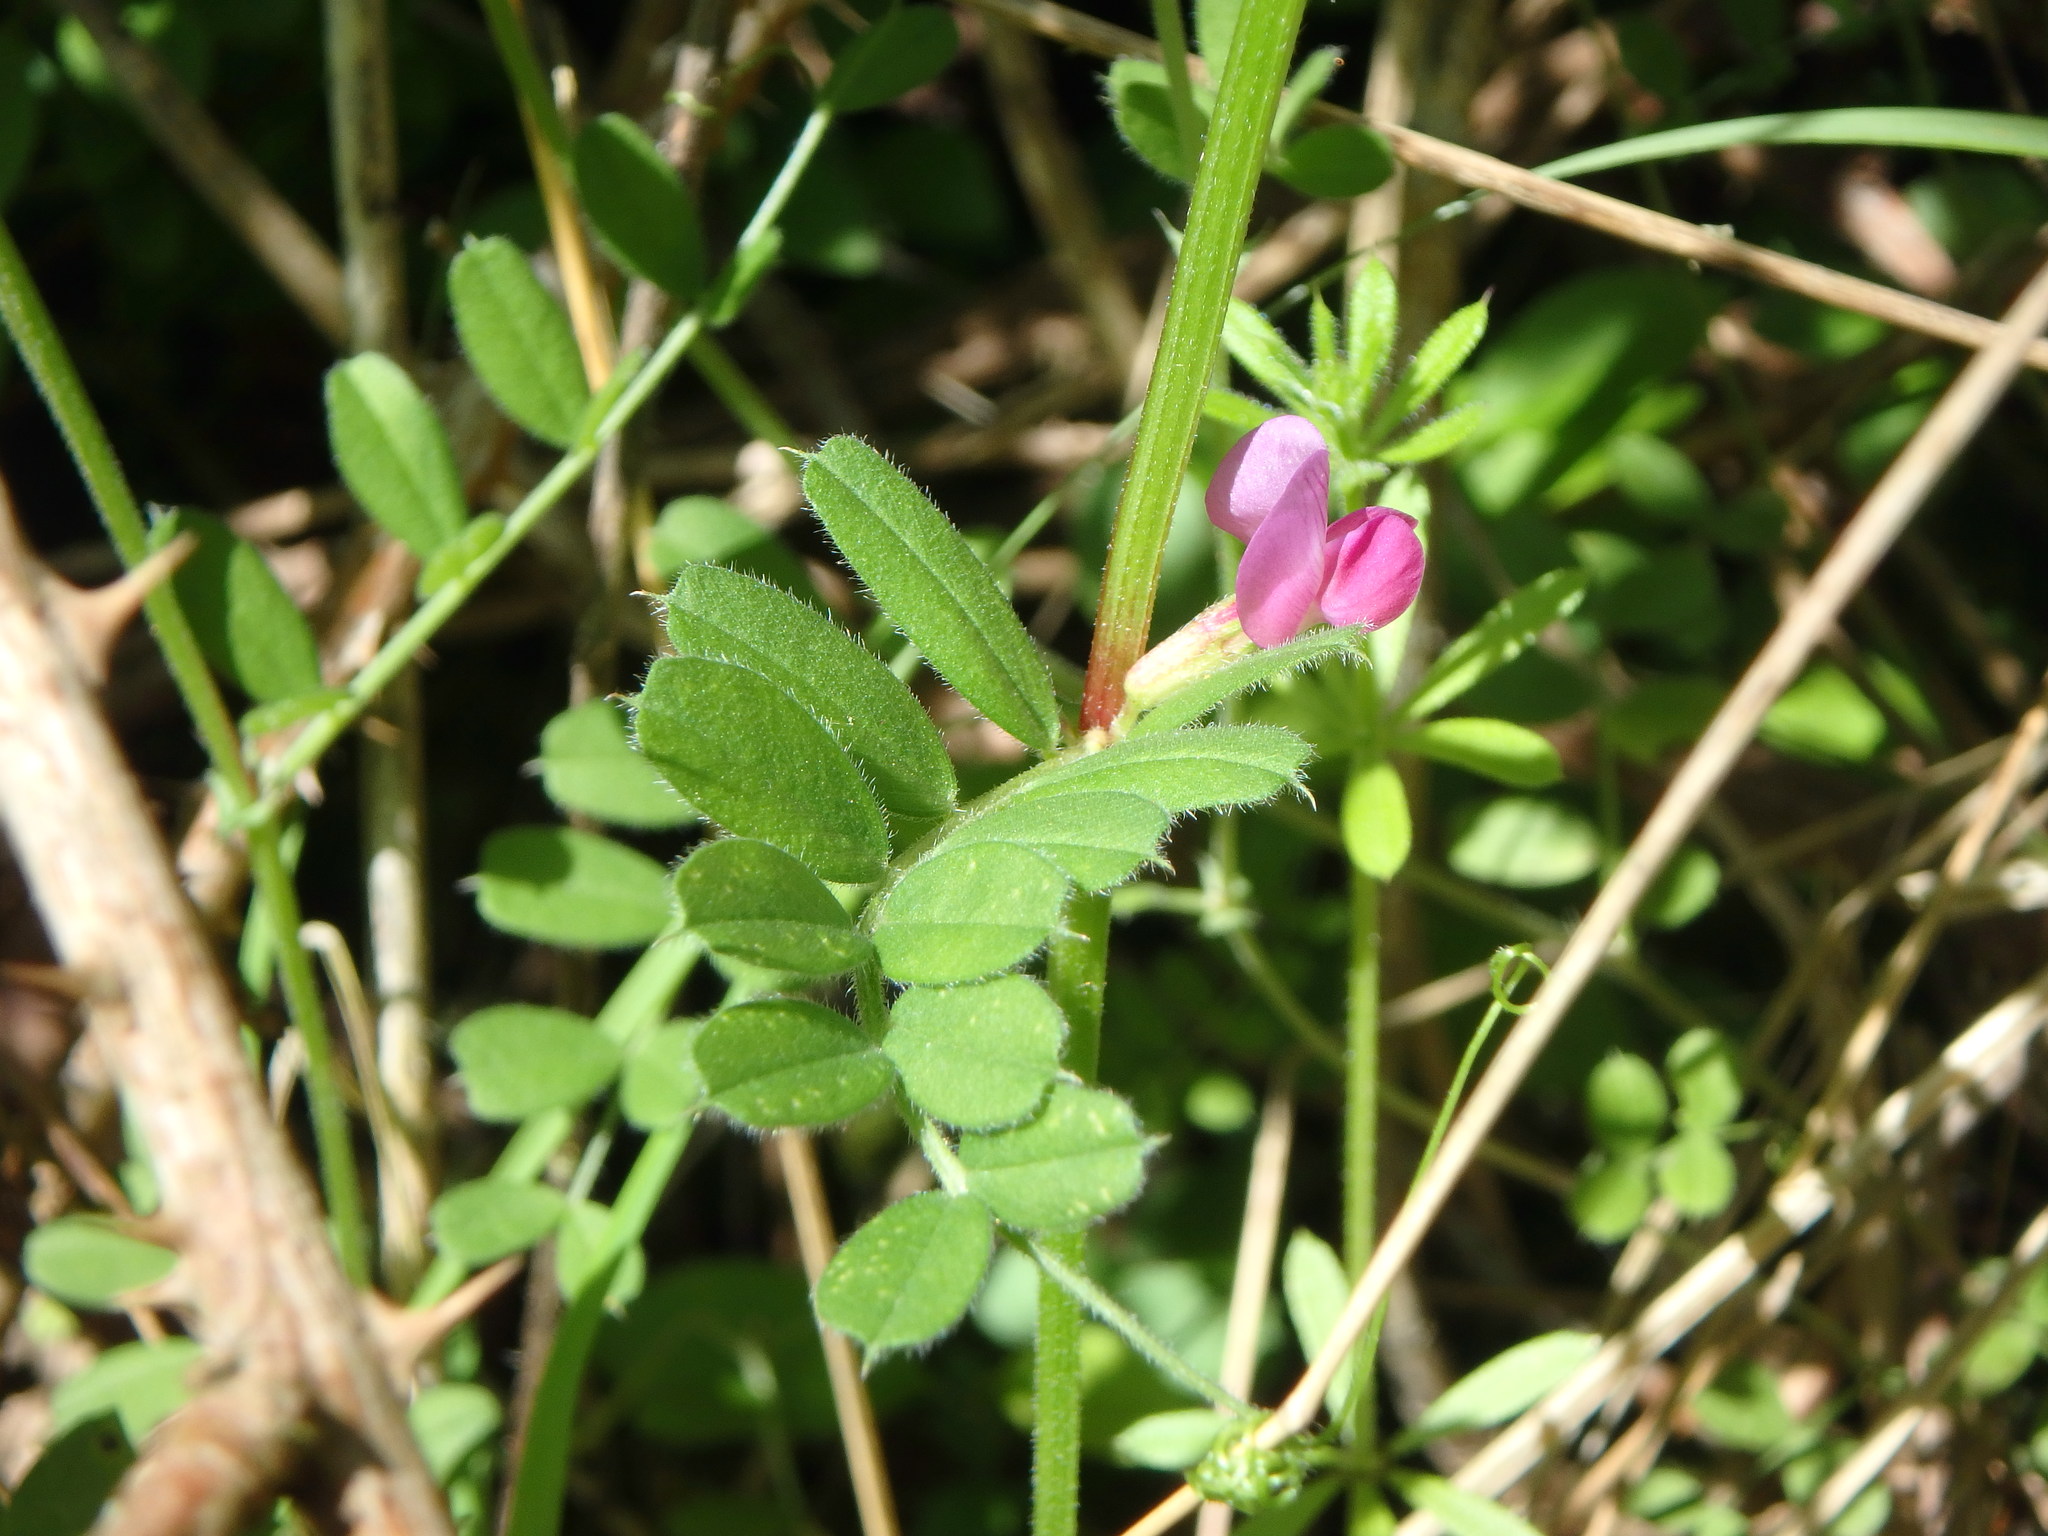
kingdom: Plantae
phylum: Tracheophyta
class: Magnoliopsida
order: Fabales
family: Fabaceae
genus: Vicia
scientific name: Vicia sativa
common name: Garden vetch
